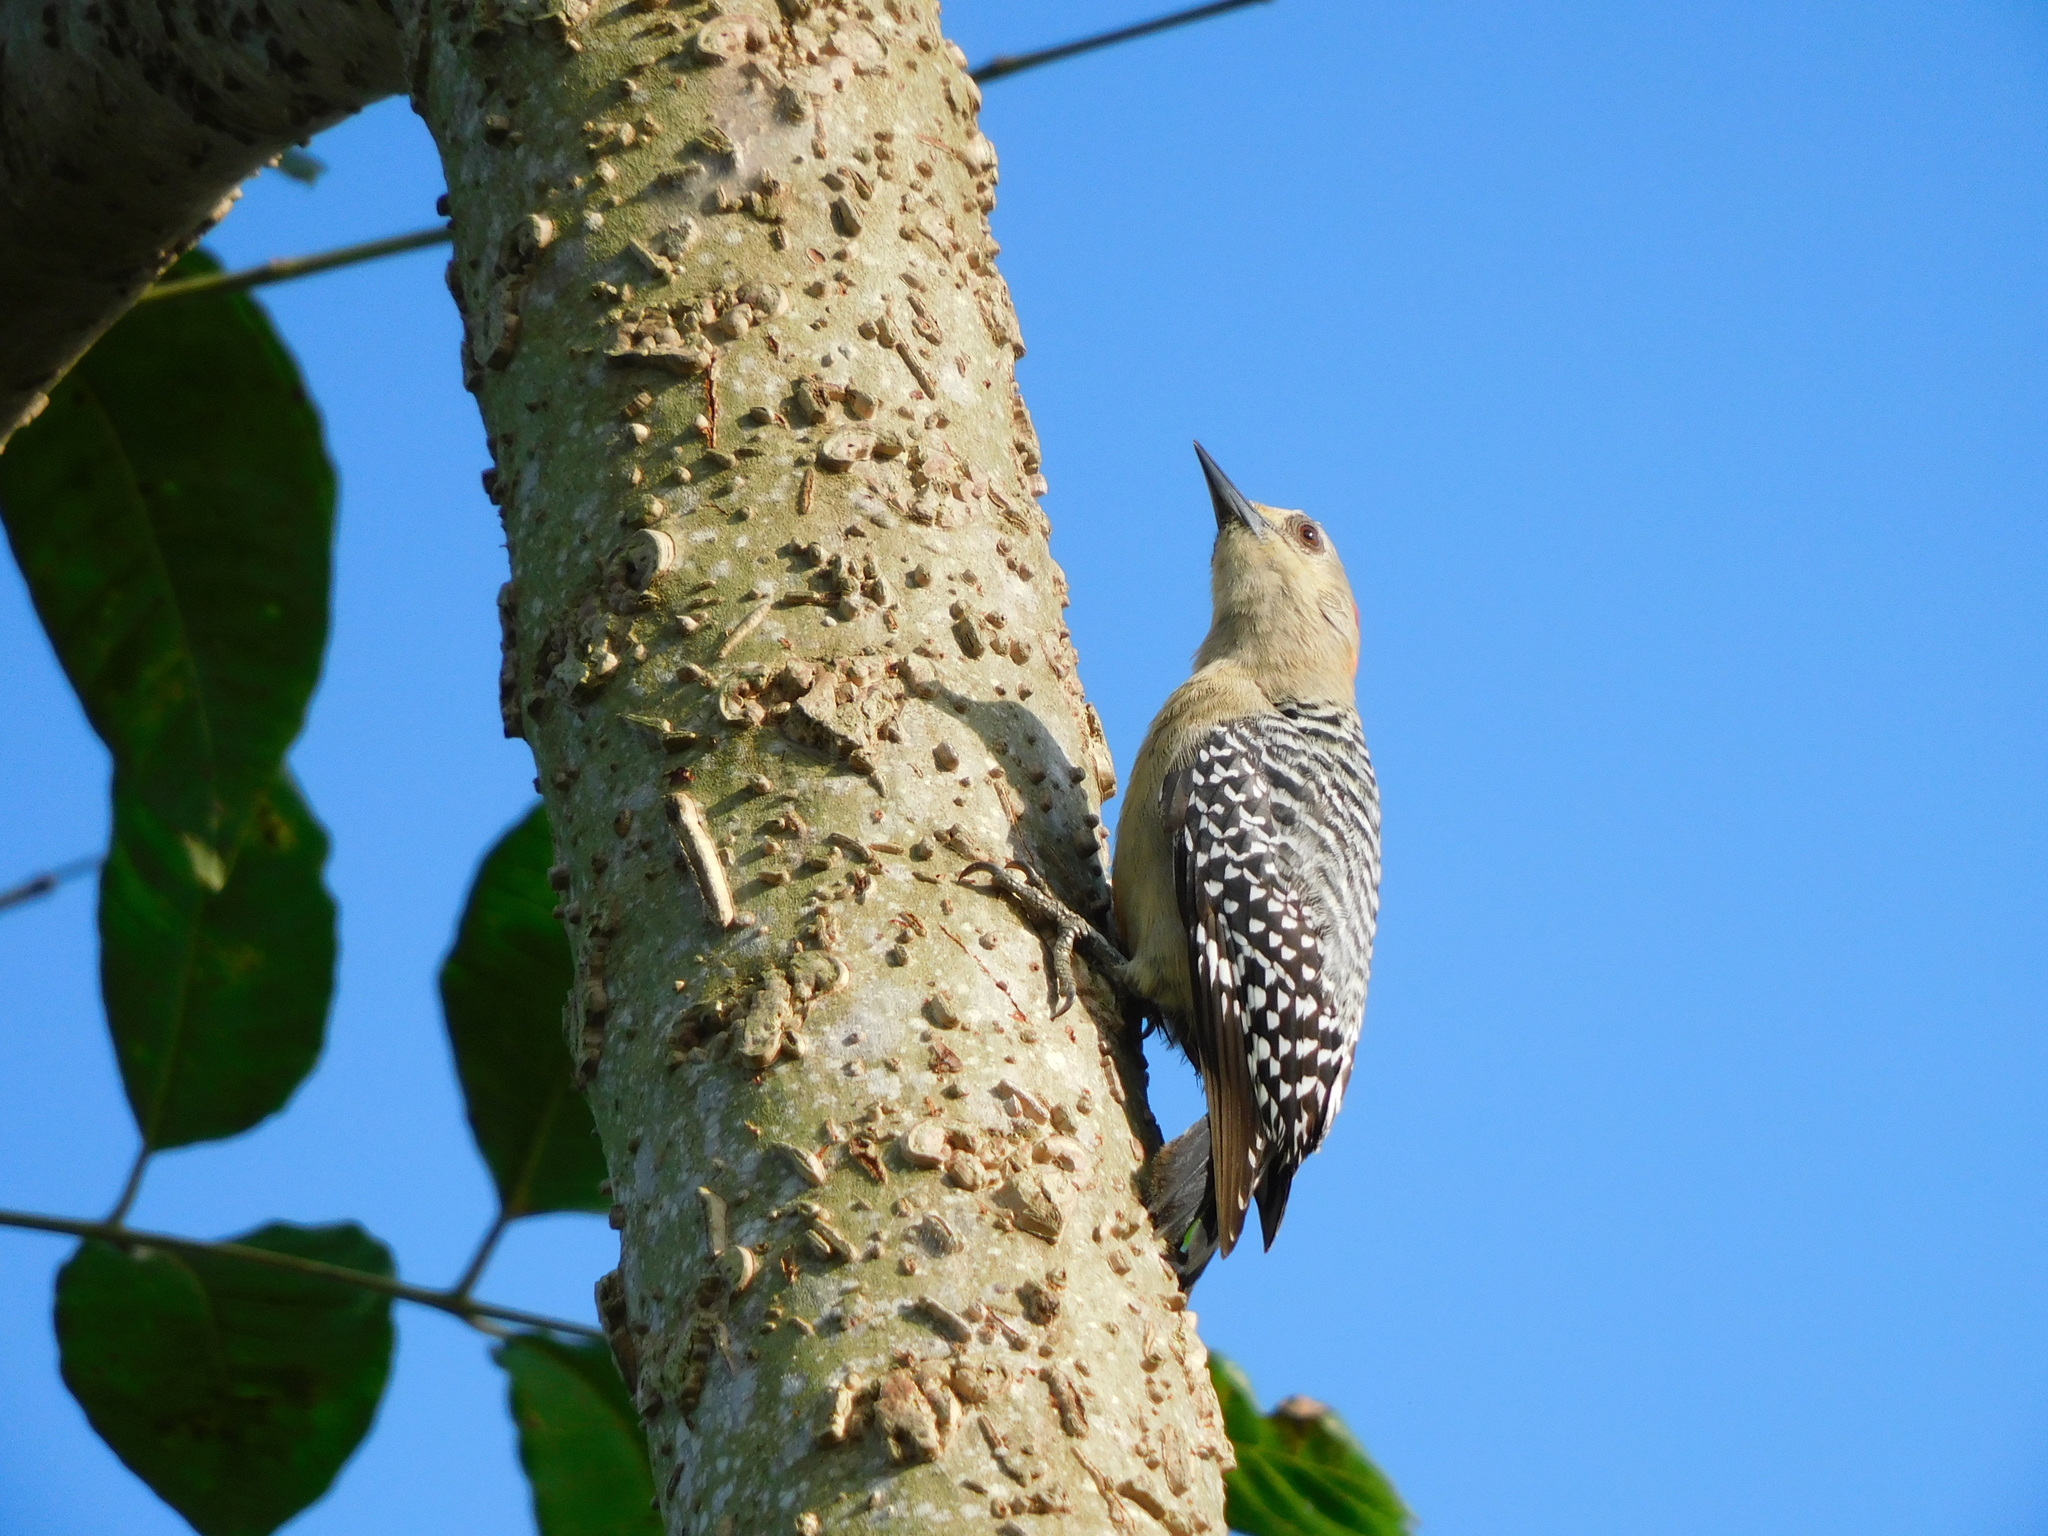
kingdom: Animalia
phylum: Chordata
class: Aves
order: Piciformes
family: Picidae
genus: Melanerpes
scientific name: Melanerpes rubricapillus
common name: Red-crowned woodpecker
